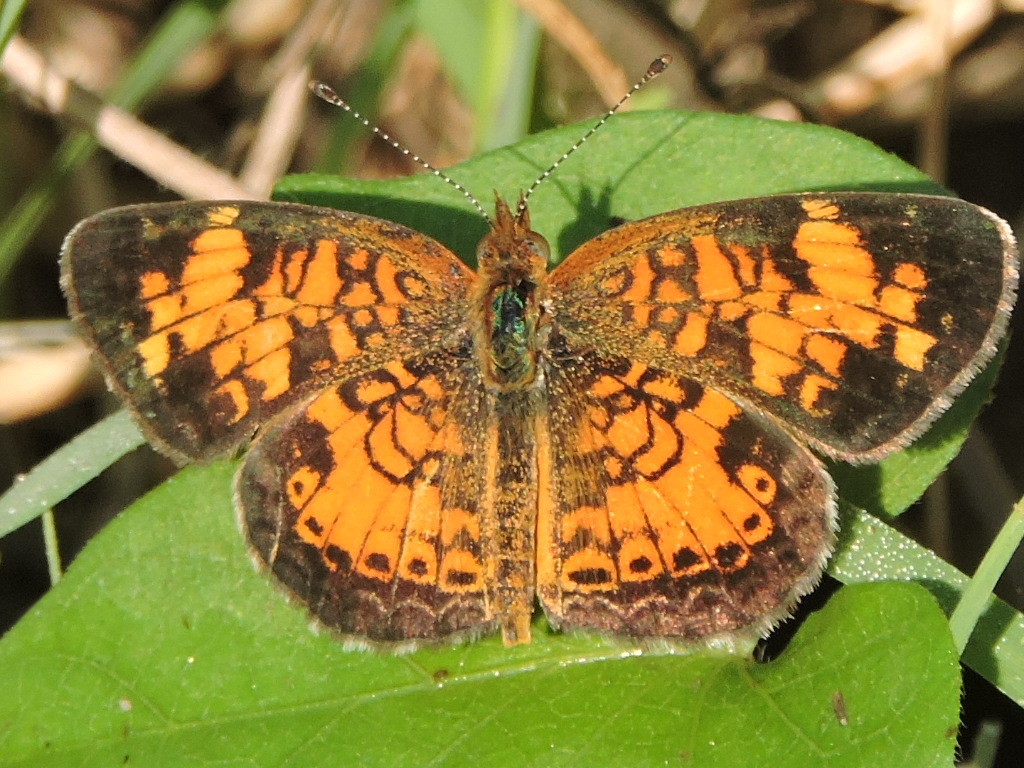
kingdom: Animalia
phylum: Arthropoda
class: Insecta
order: Lepidoptera
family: Nymphalidae
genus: Phyciodes
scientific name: Phyciodes tharos
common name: Pearl crescent
